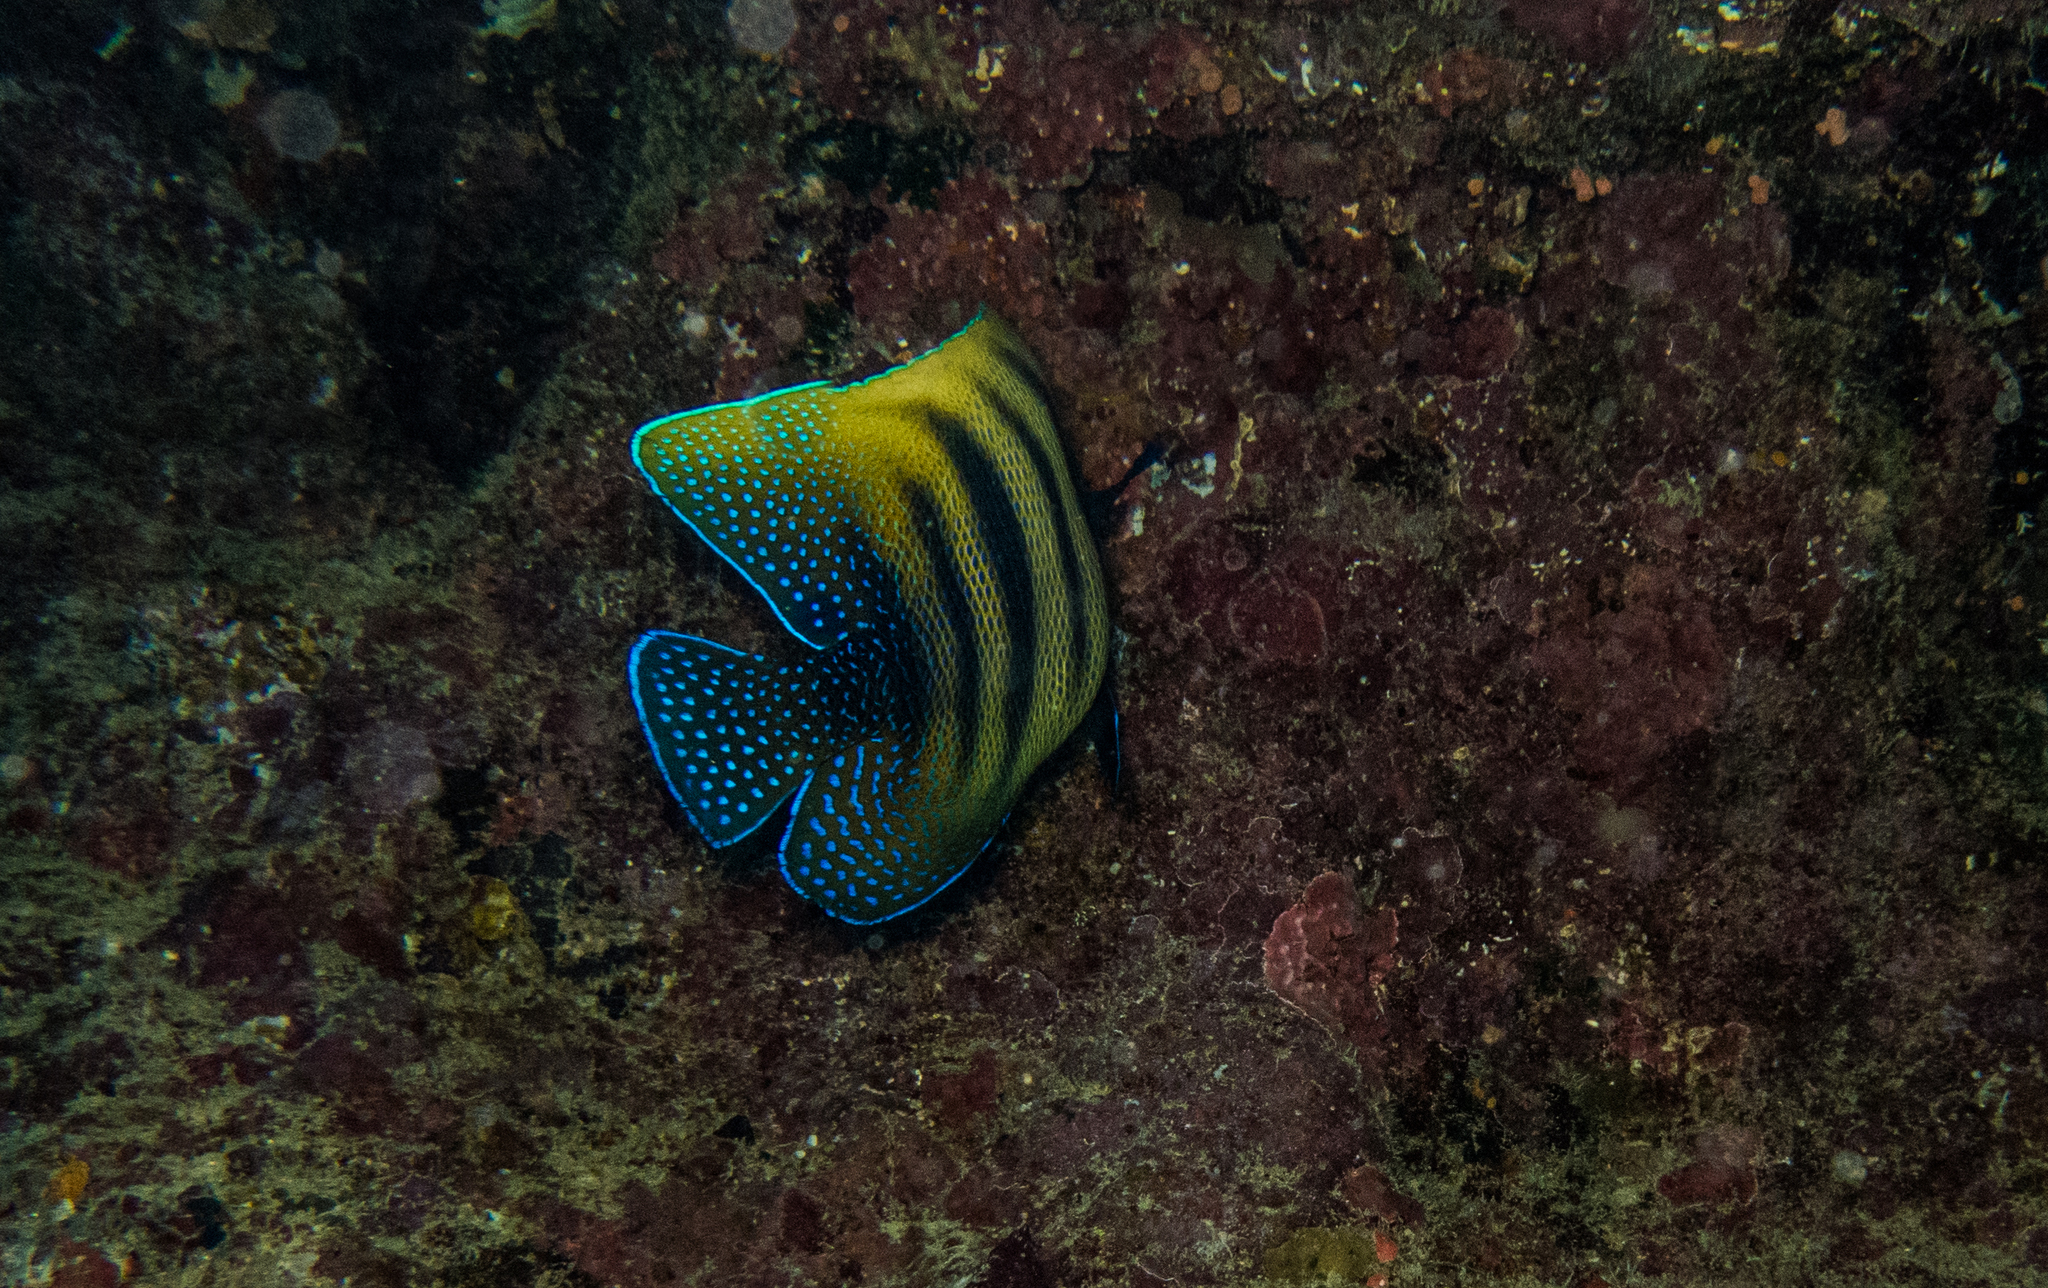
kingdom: Animalia
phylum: Chordata
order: Perciformes
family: Pomacanthidae
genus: Pomacanthus
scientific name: Pomacanthus sexstriatus
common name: Six-banded angelfish
